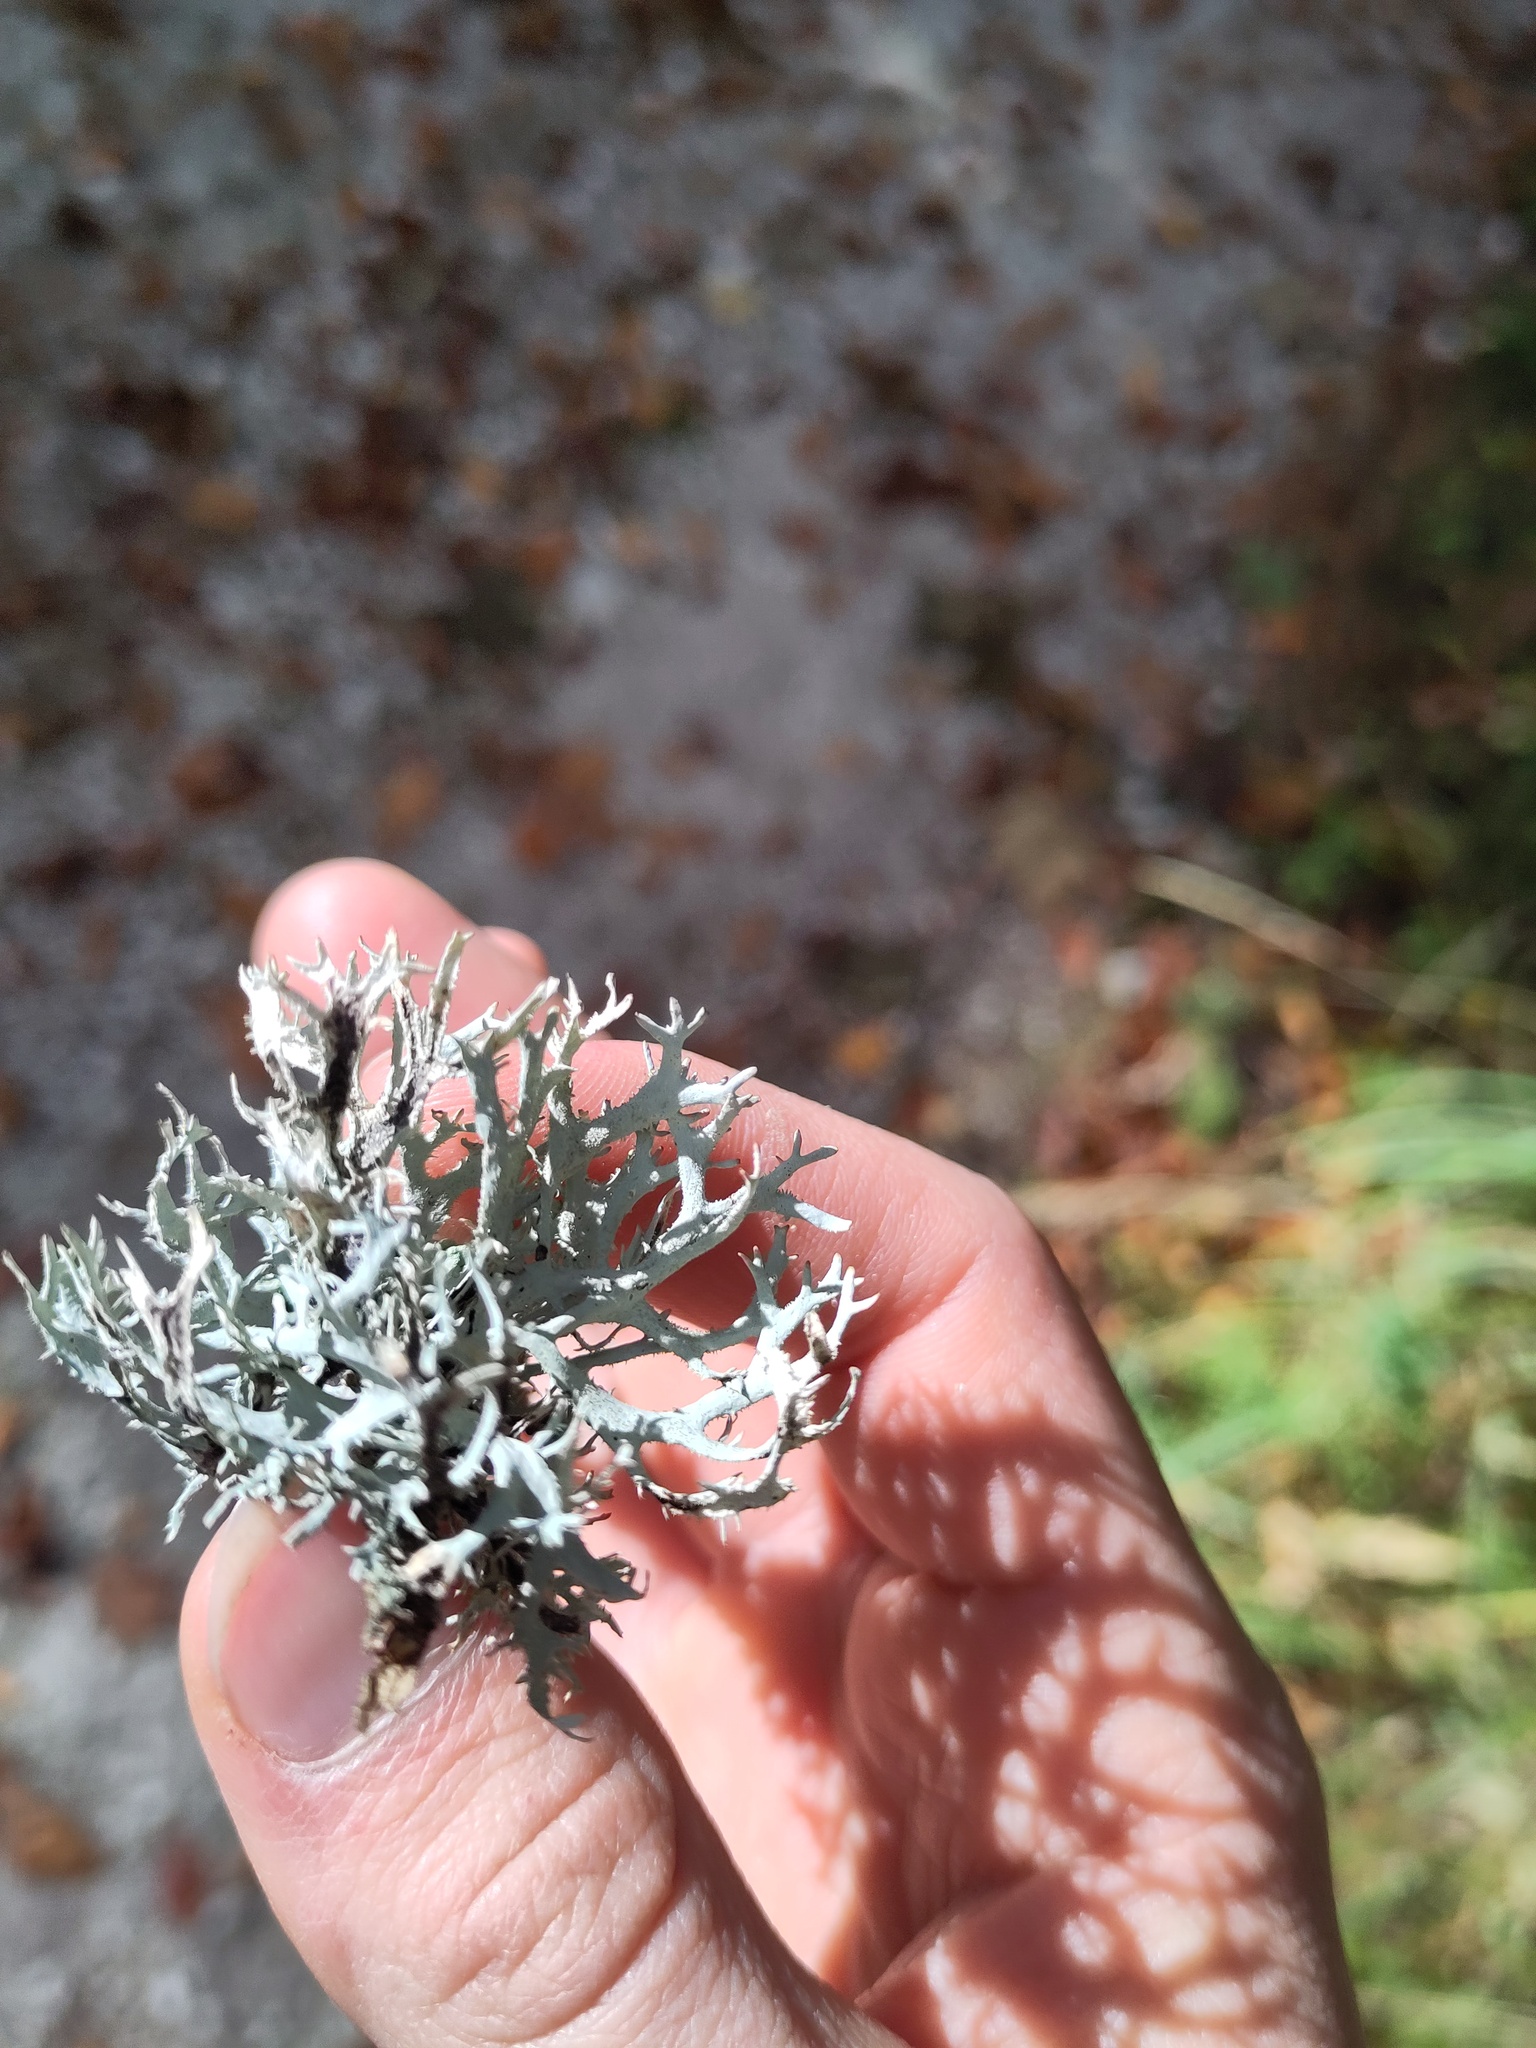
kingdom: Fungi
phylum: Ascomycota
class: Lecanoromycetes
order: Lecanorales
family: Parmeliaceae
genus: Pseudevernia
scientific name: Pseudevernia furfuracea
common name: Tree moss
